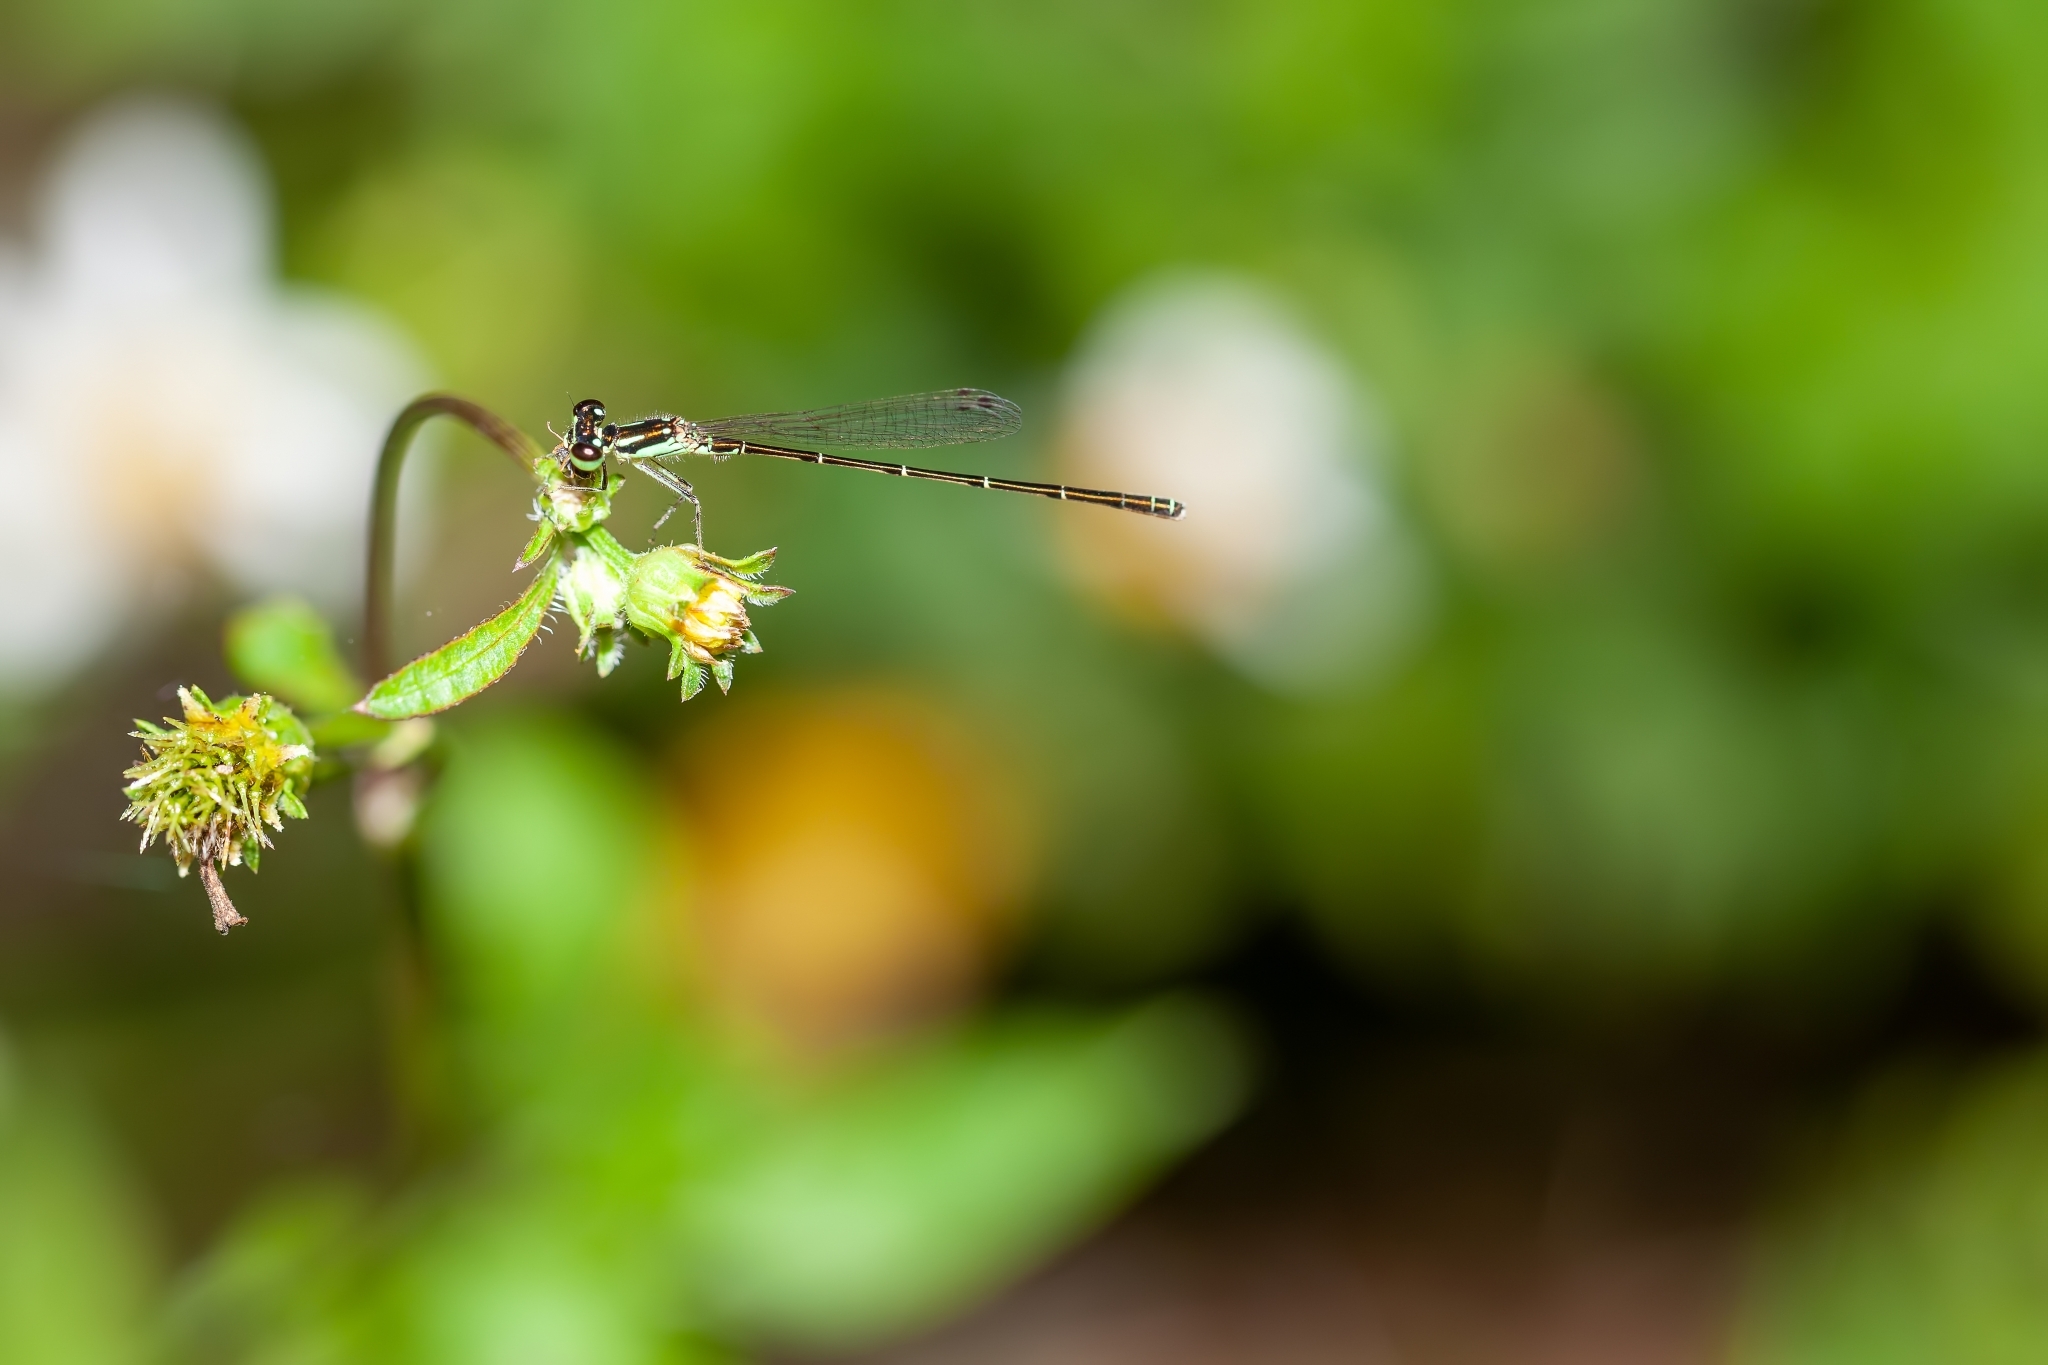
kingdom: Animalia
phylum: Arthropoda
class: Insecta
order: Odonata
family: Coenagrionidae
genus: Ischnura
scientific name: Ischnura posita
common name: Fragile forktail
